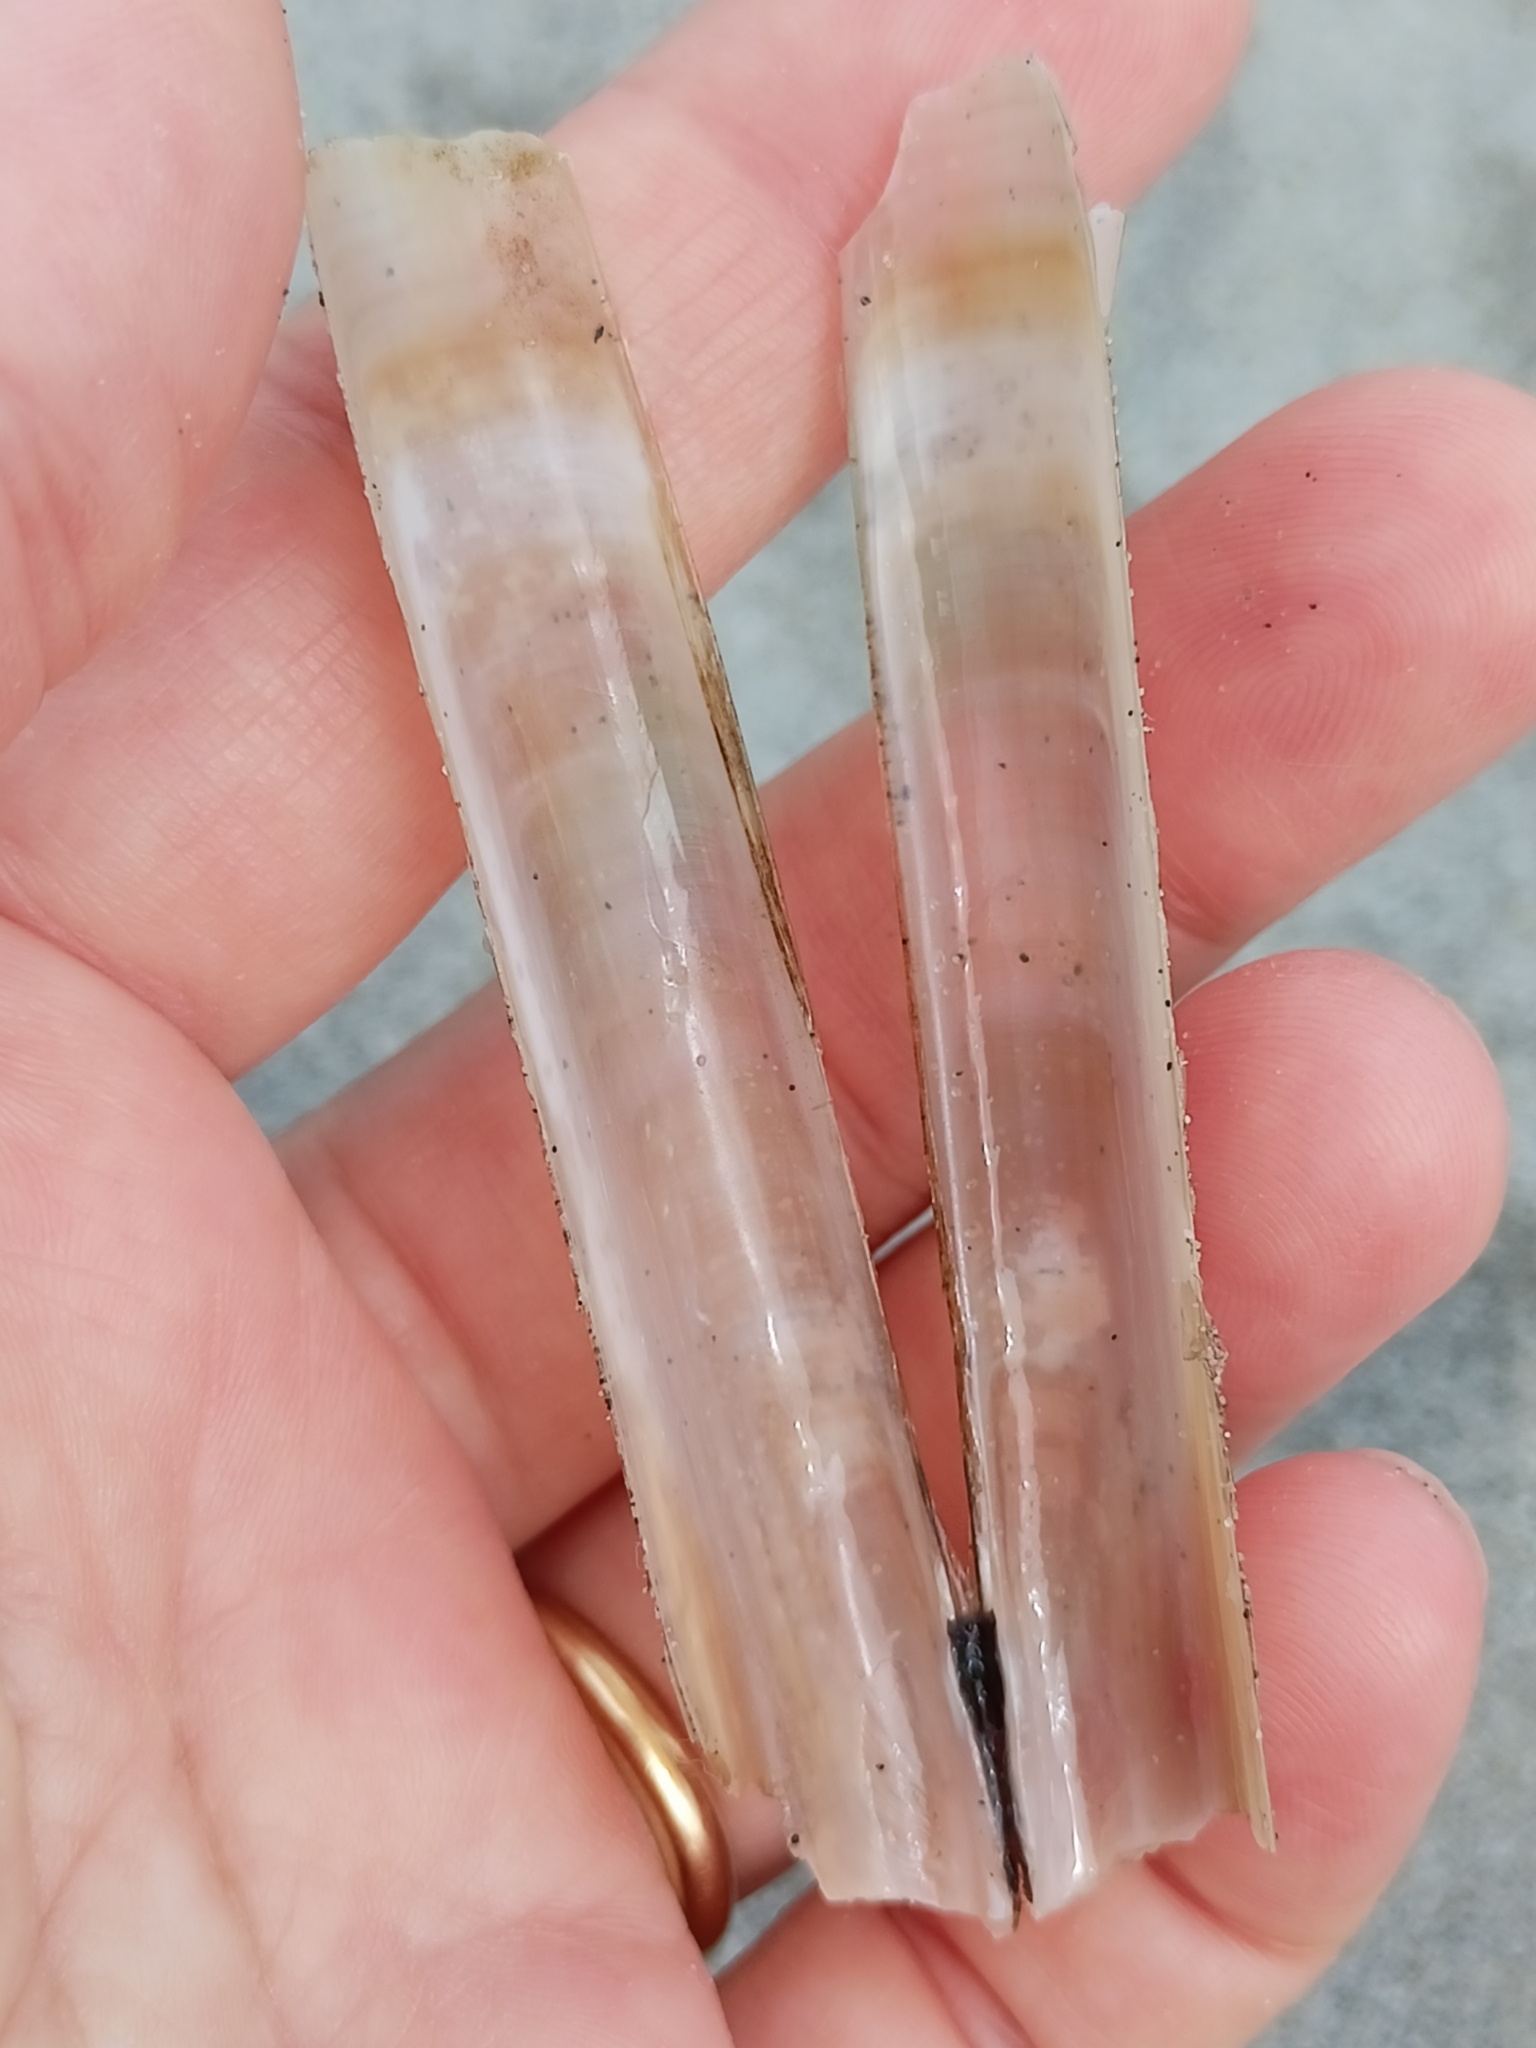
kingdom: Animalia
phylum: Mollusca
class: Bivalvia
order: Adapedonta
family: Solenidae
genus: Solen
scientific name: Solen marginatus
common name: Grooved razor shell
